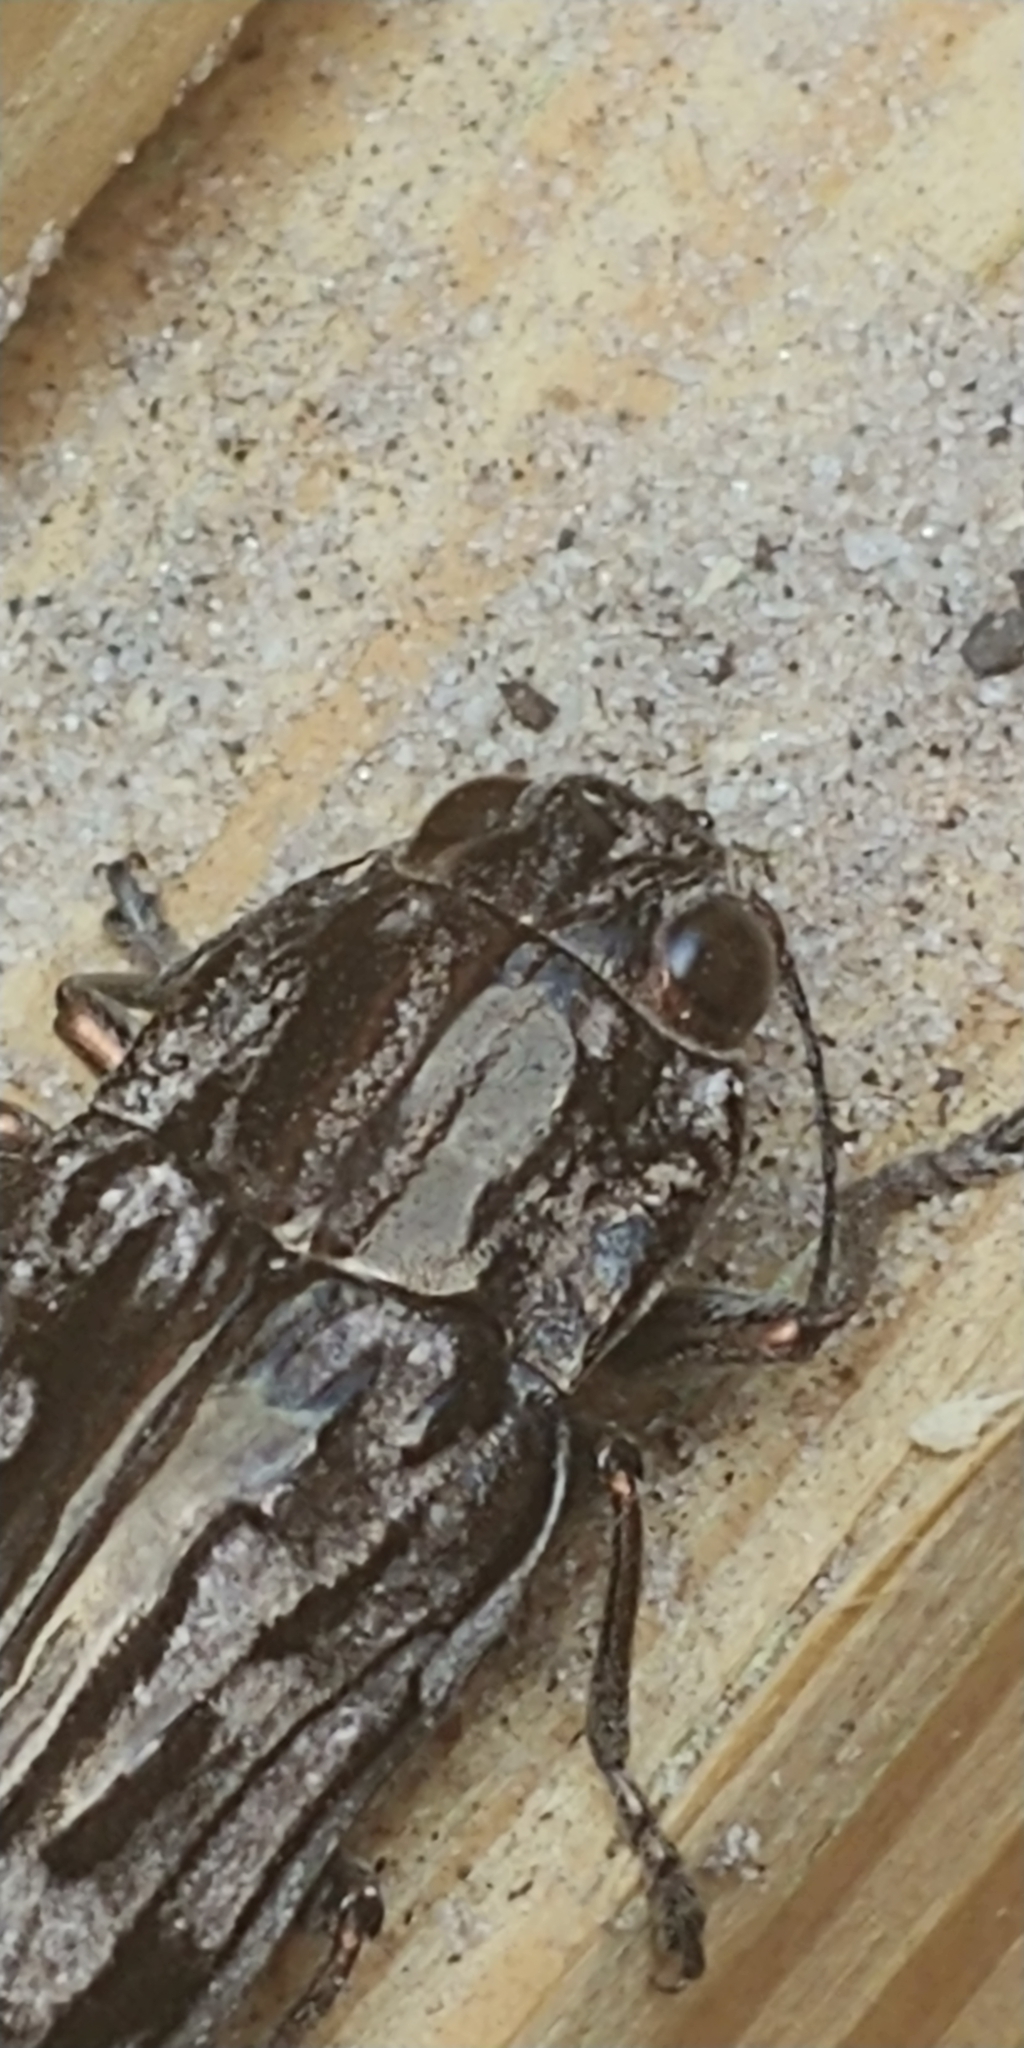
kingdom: Animalia
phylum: Arthropoda
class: Insecta
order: Coleoptera
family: Buprestidae
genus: Chalcophora
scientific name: Chalcophora virginiensis
